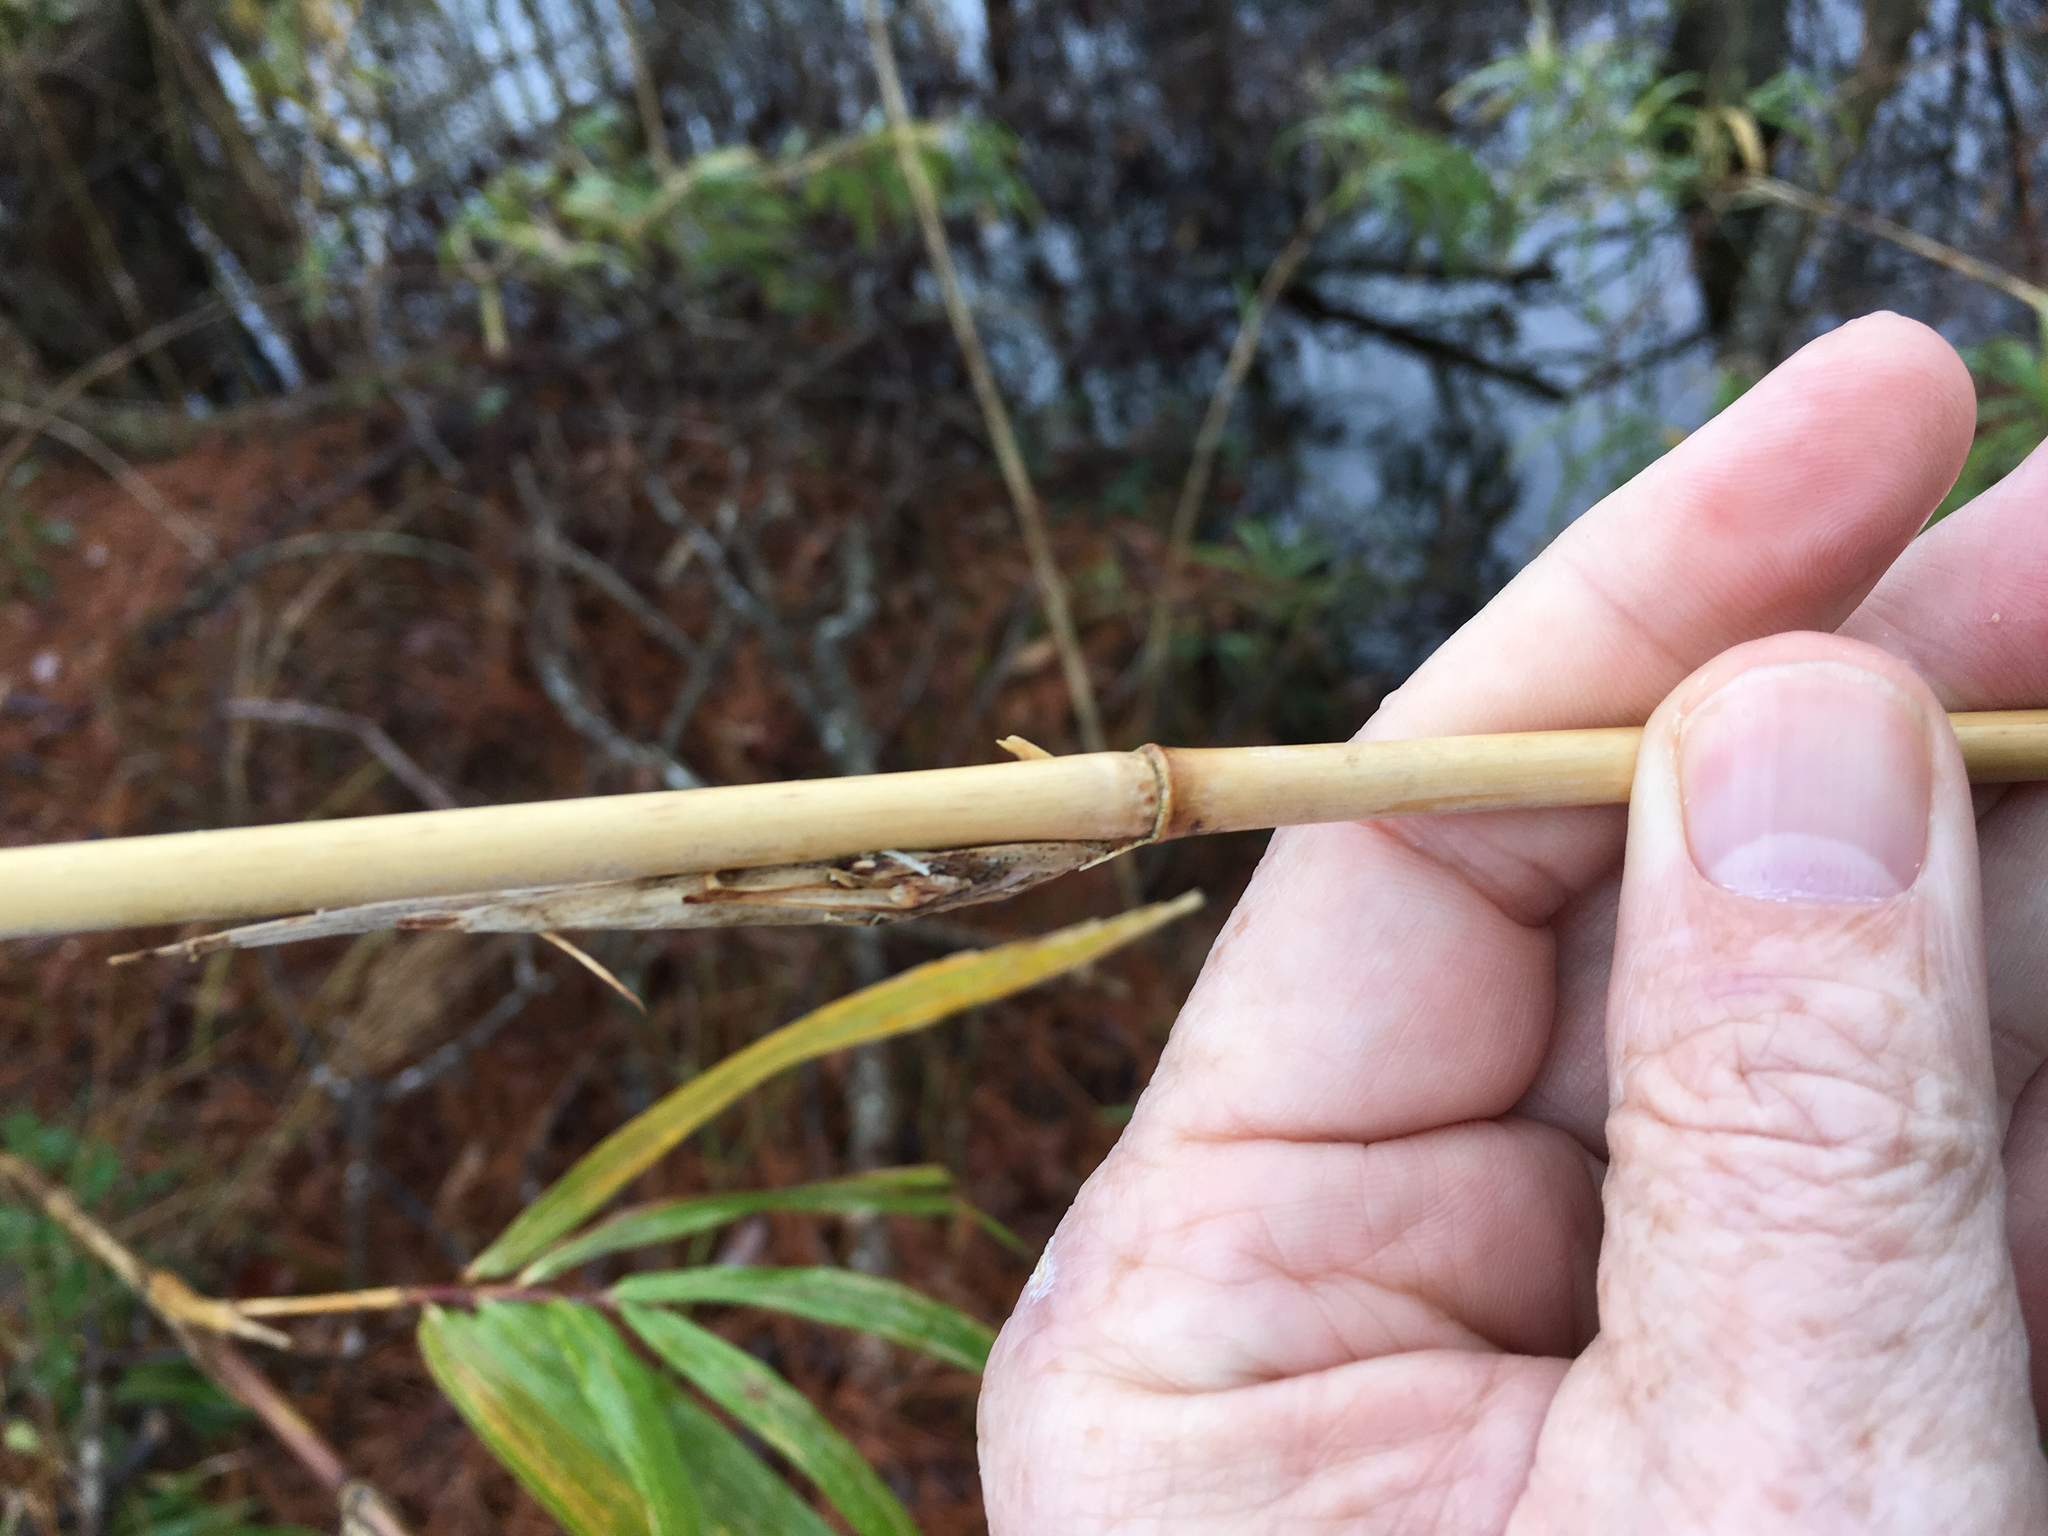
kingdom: Plantae
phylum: Tracheophyta
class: Liliopsida
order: Poales
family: Poaceae
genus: Arundinaria
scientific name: Arundinaria tecta
